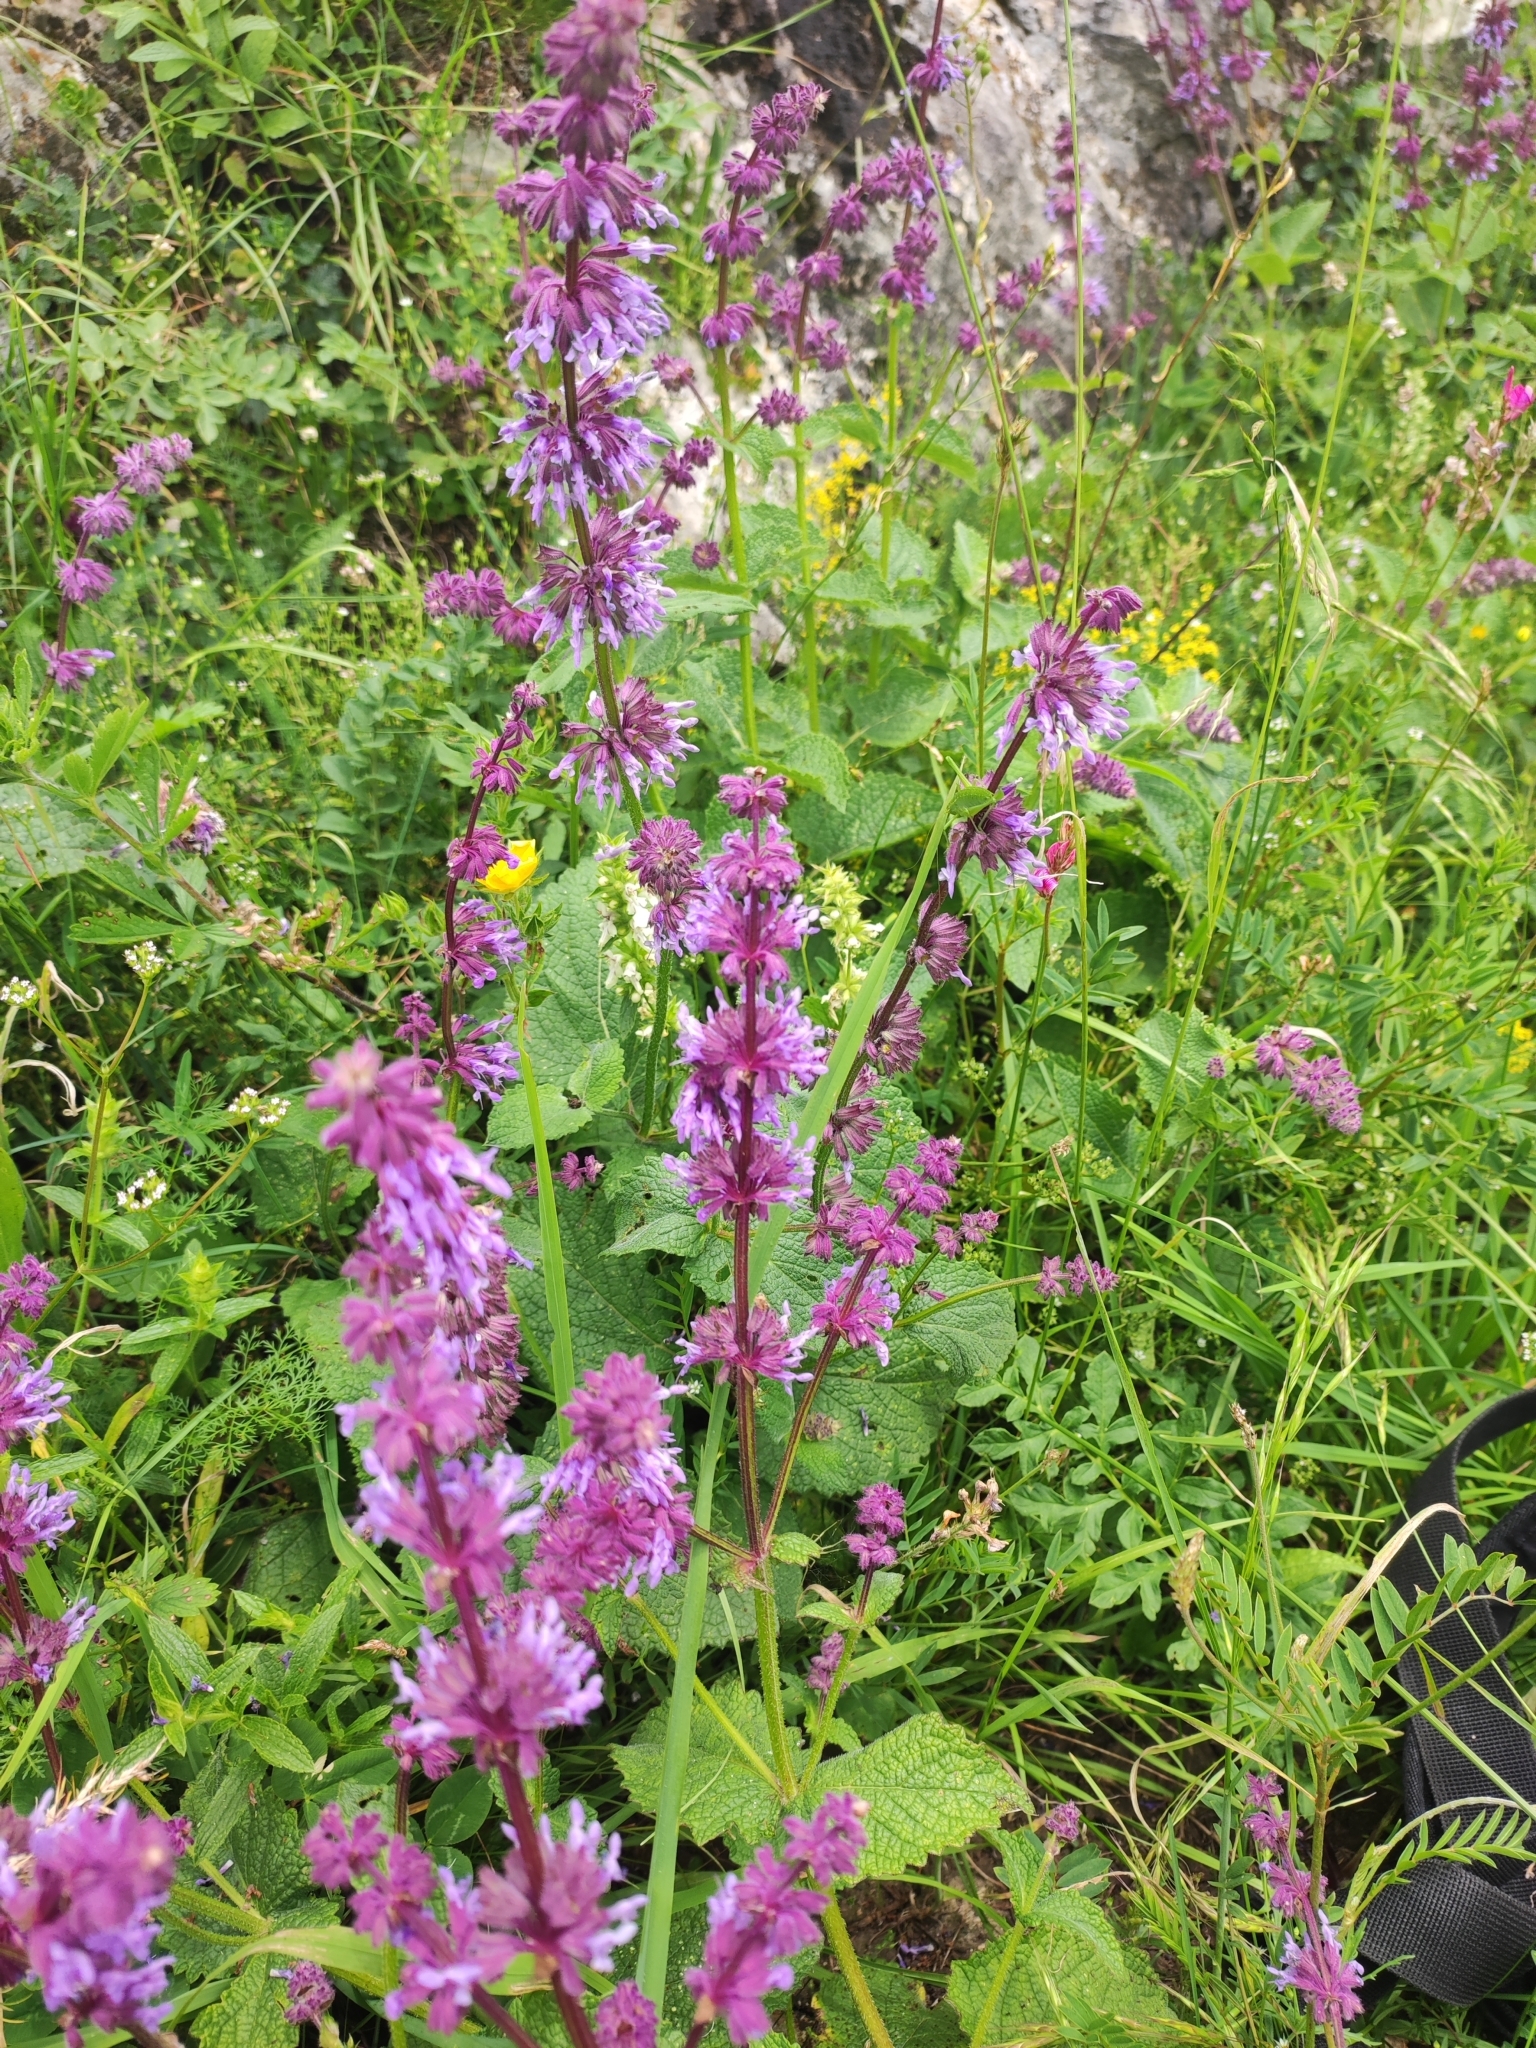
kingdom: Plantae
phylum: Tracheophyta
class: Magnoliopsida
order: Lamiales
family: Lamiaceae
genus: Salvia
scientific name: Salvia verticillata
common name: Whorled clary
